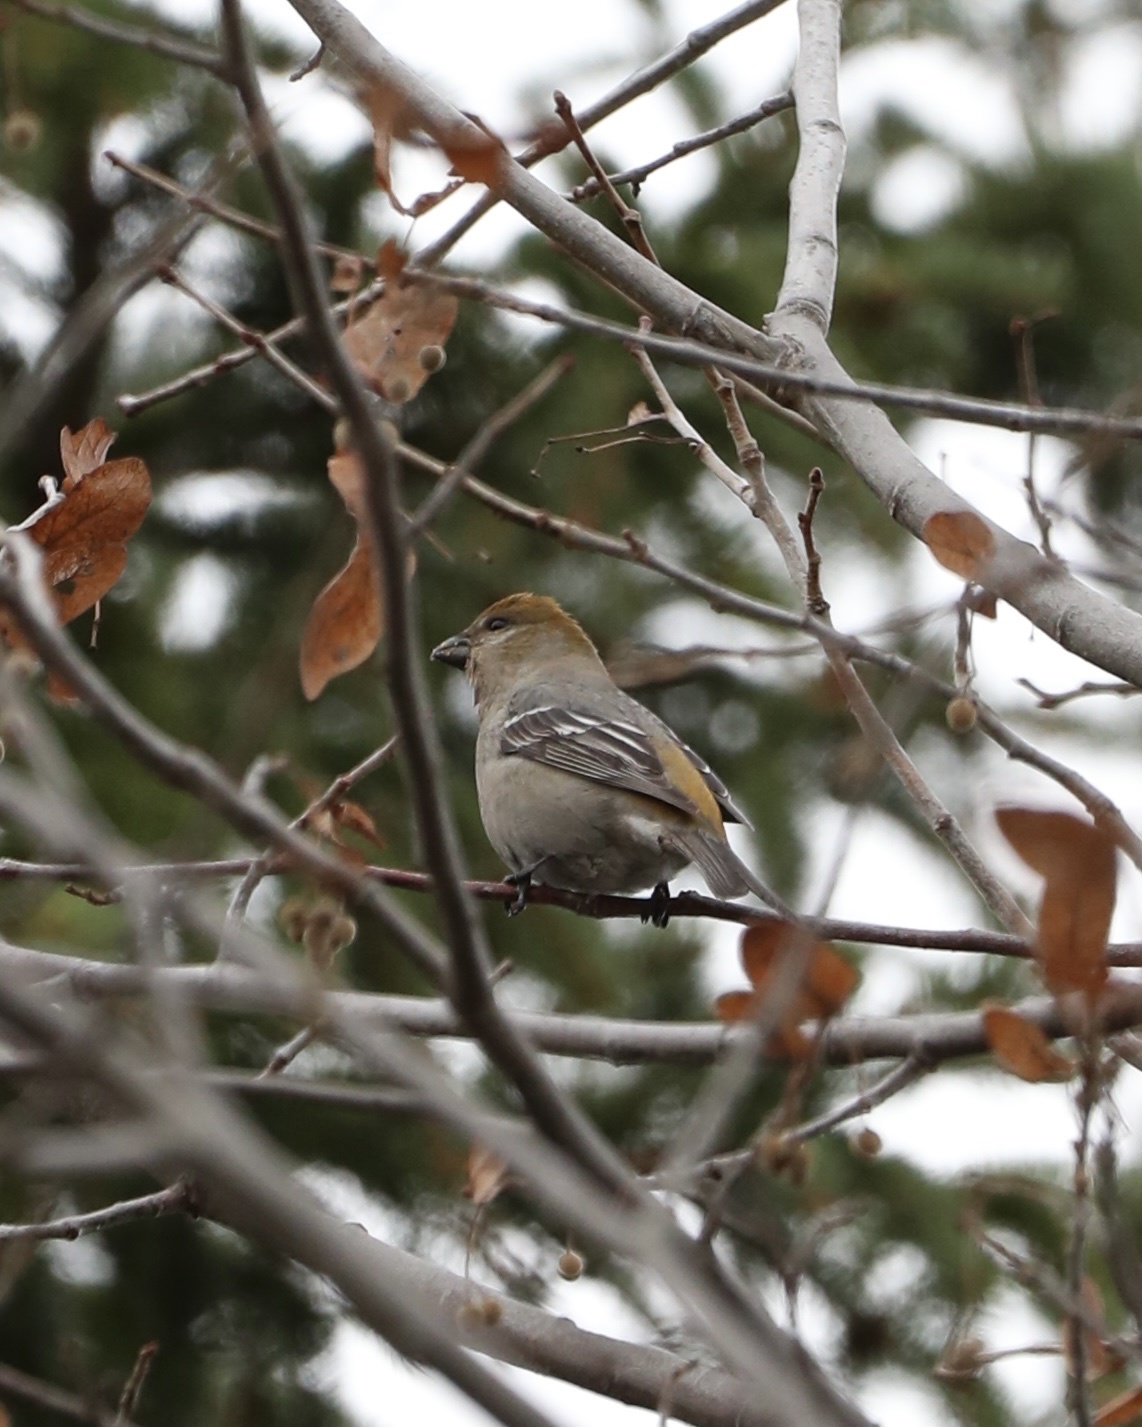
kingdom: Animalia
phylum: Chordata
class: Aves
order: Passeriformes
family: Fringillidae
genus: Pinicola
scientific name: Pinicola enucleator
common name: Pine grosbeak
